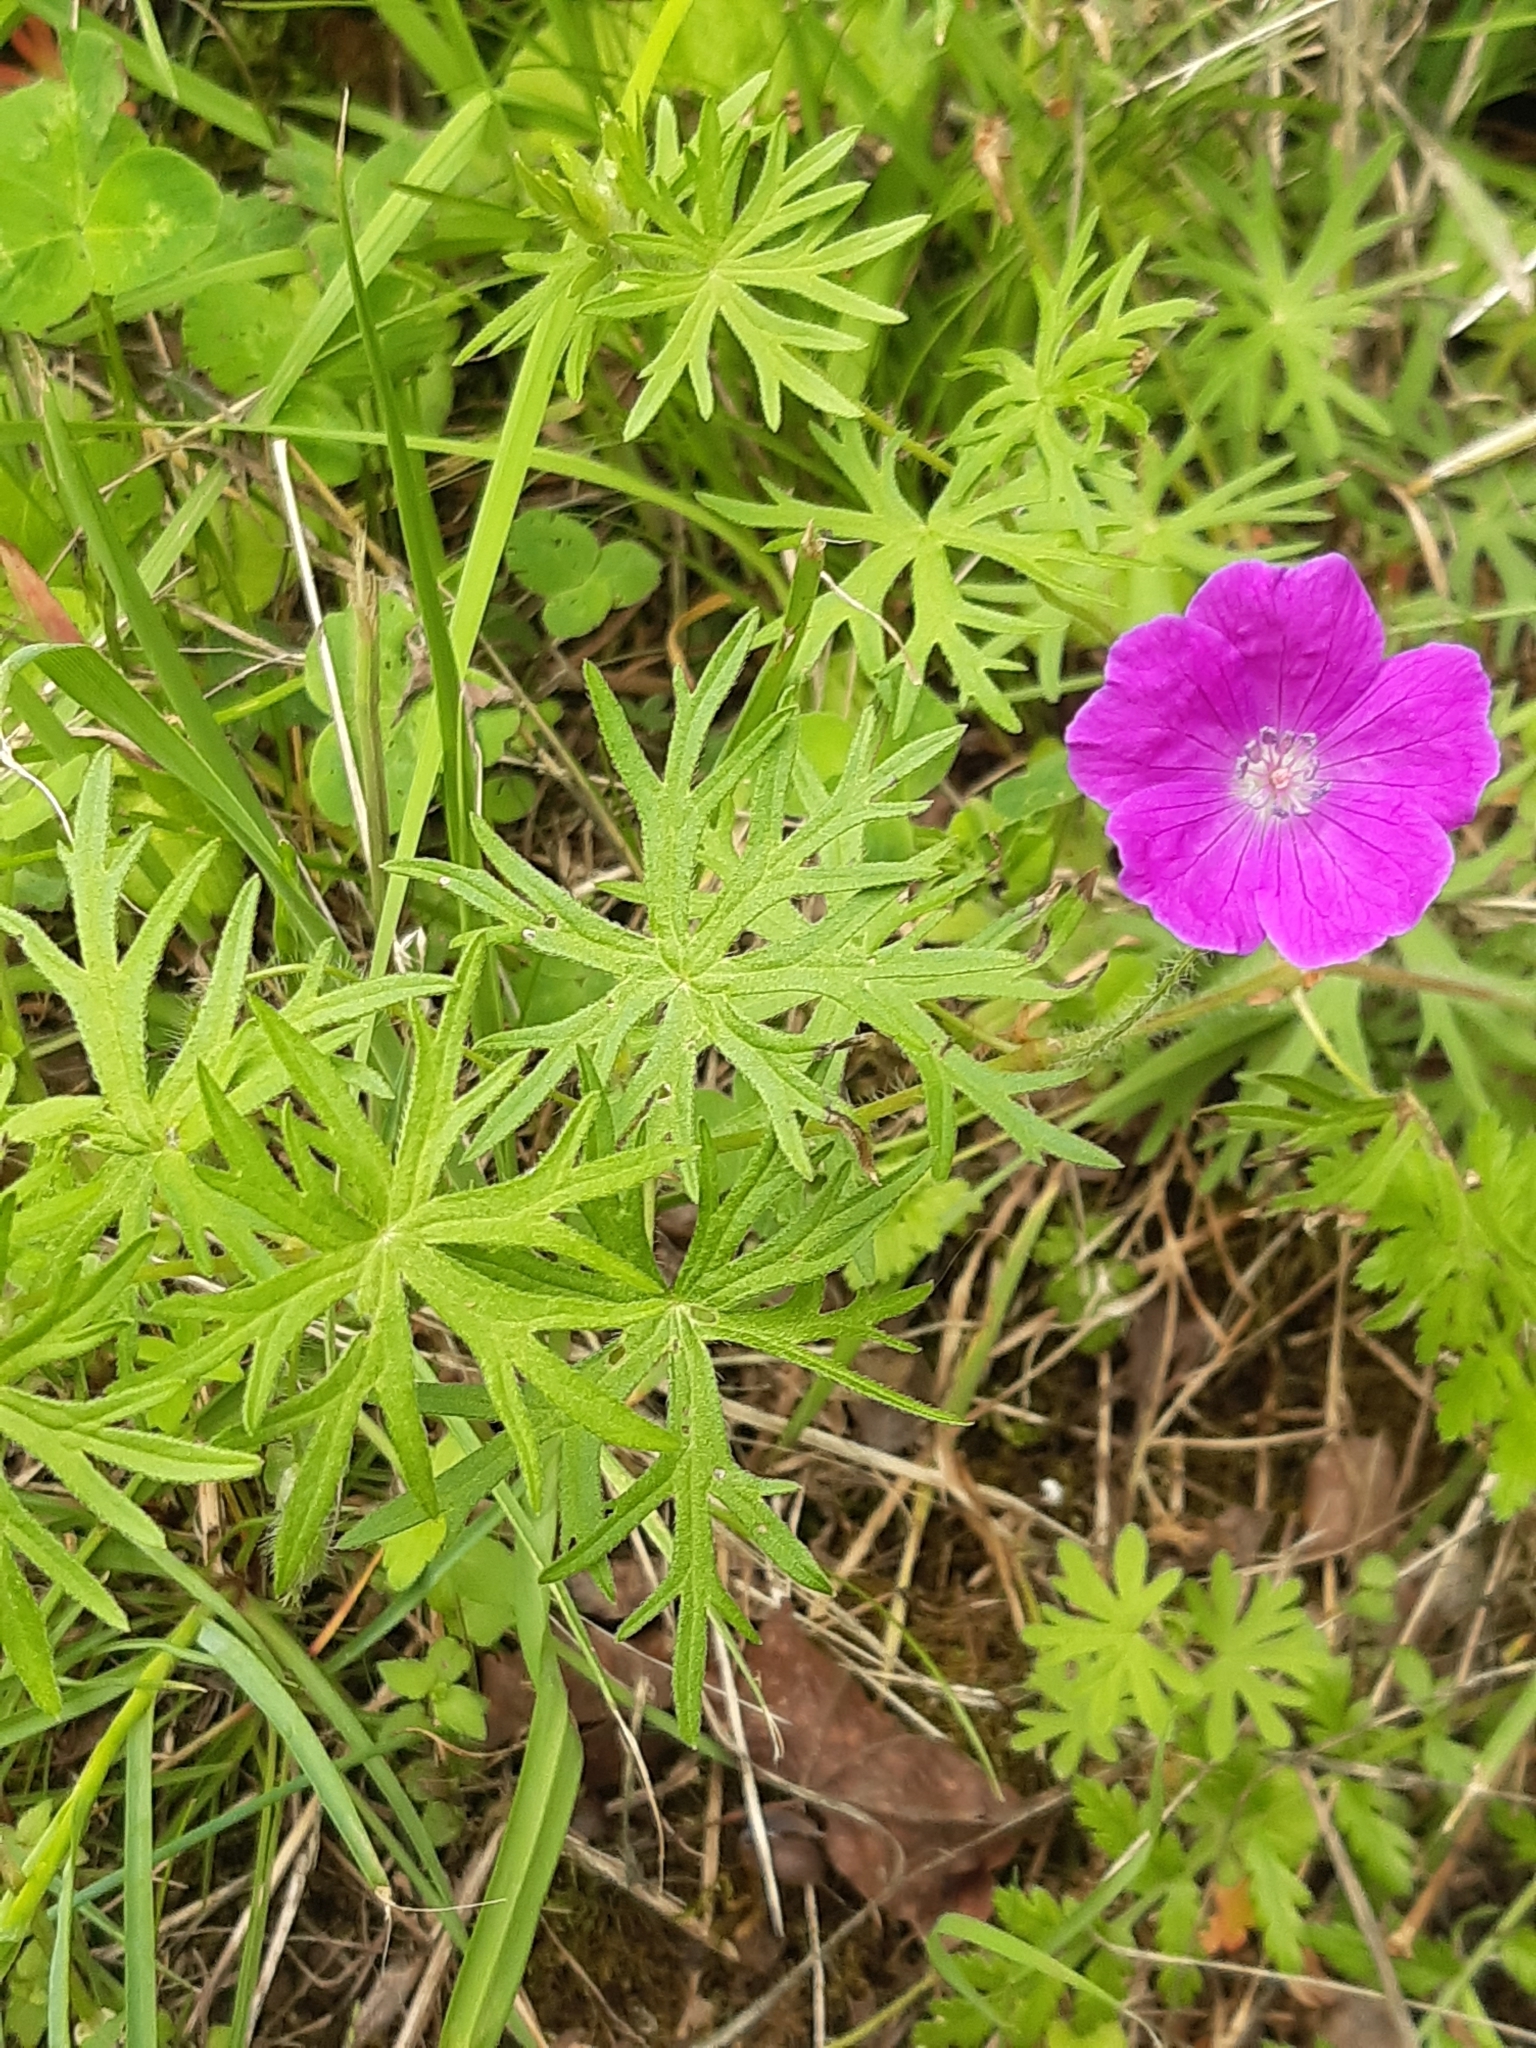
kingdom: Plantae
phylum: Tracheophyta
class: Magnoliopsida
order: Geraniales
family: Geraniaceae
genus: Geranium
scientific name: Geranium sanguineum
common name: Bloody crane's-bill
